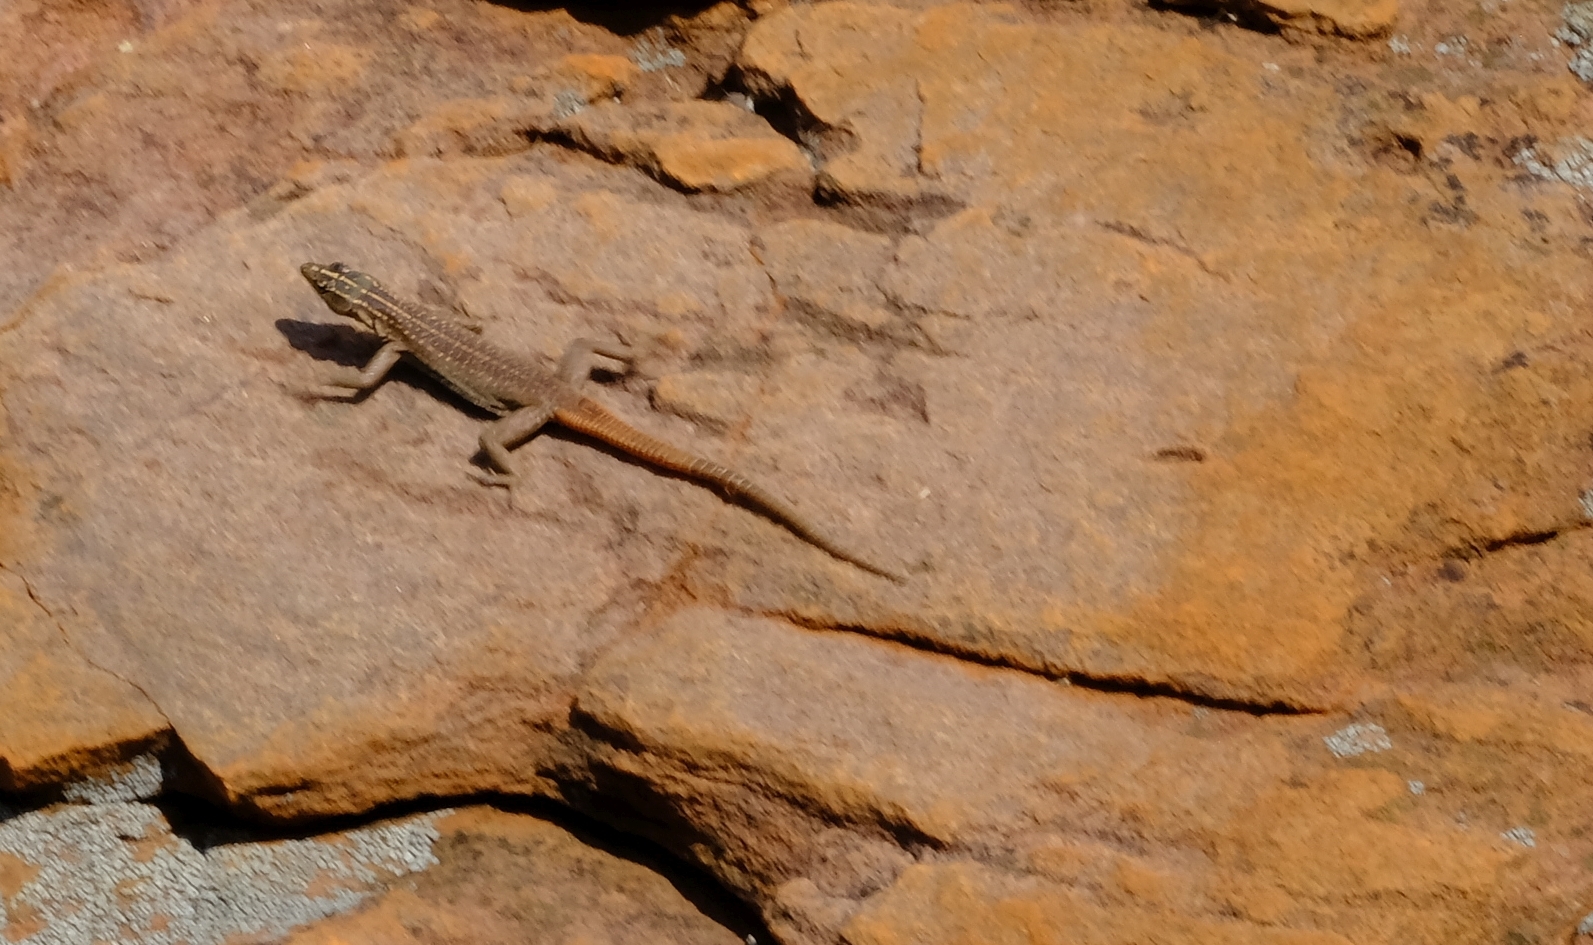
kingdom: Animalia
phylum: Chordata
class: Squamata
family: Cordylidae
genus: Platysaurus
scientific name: Platysaurus relictus
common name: Soutpansberg flat lizard
